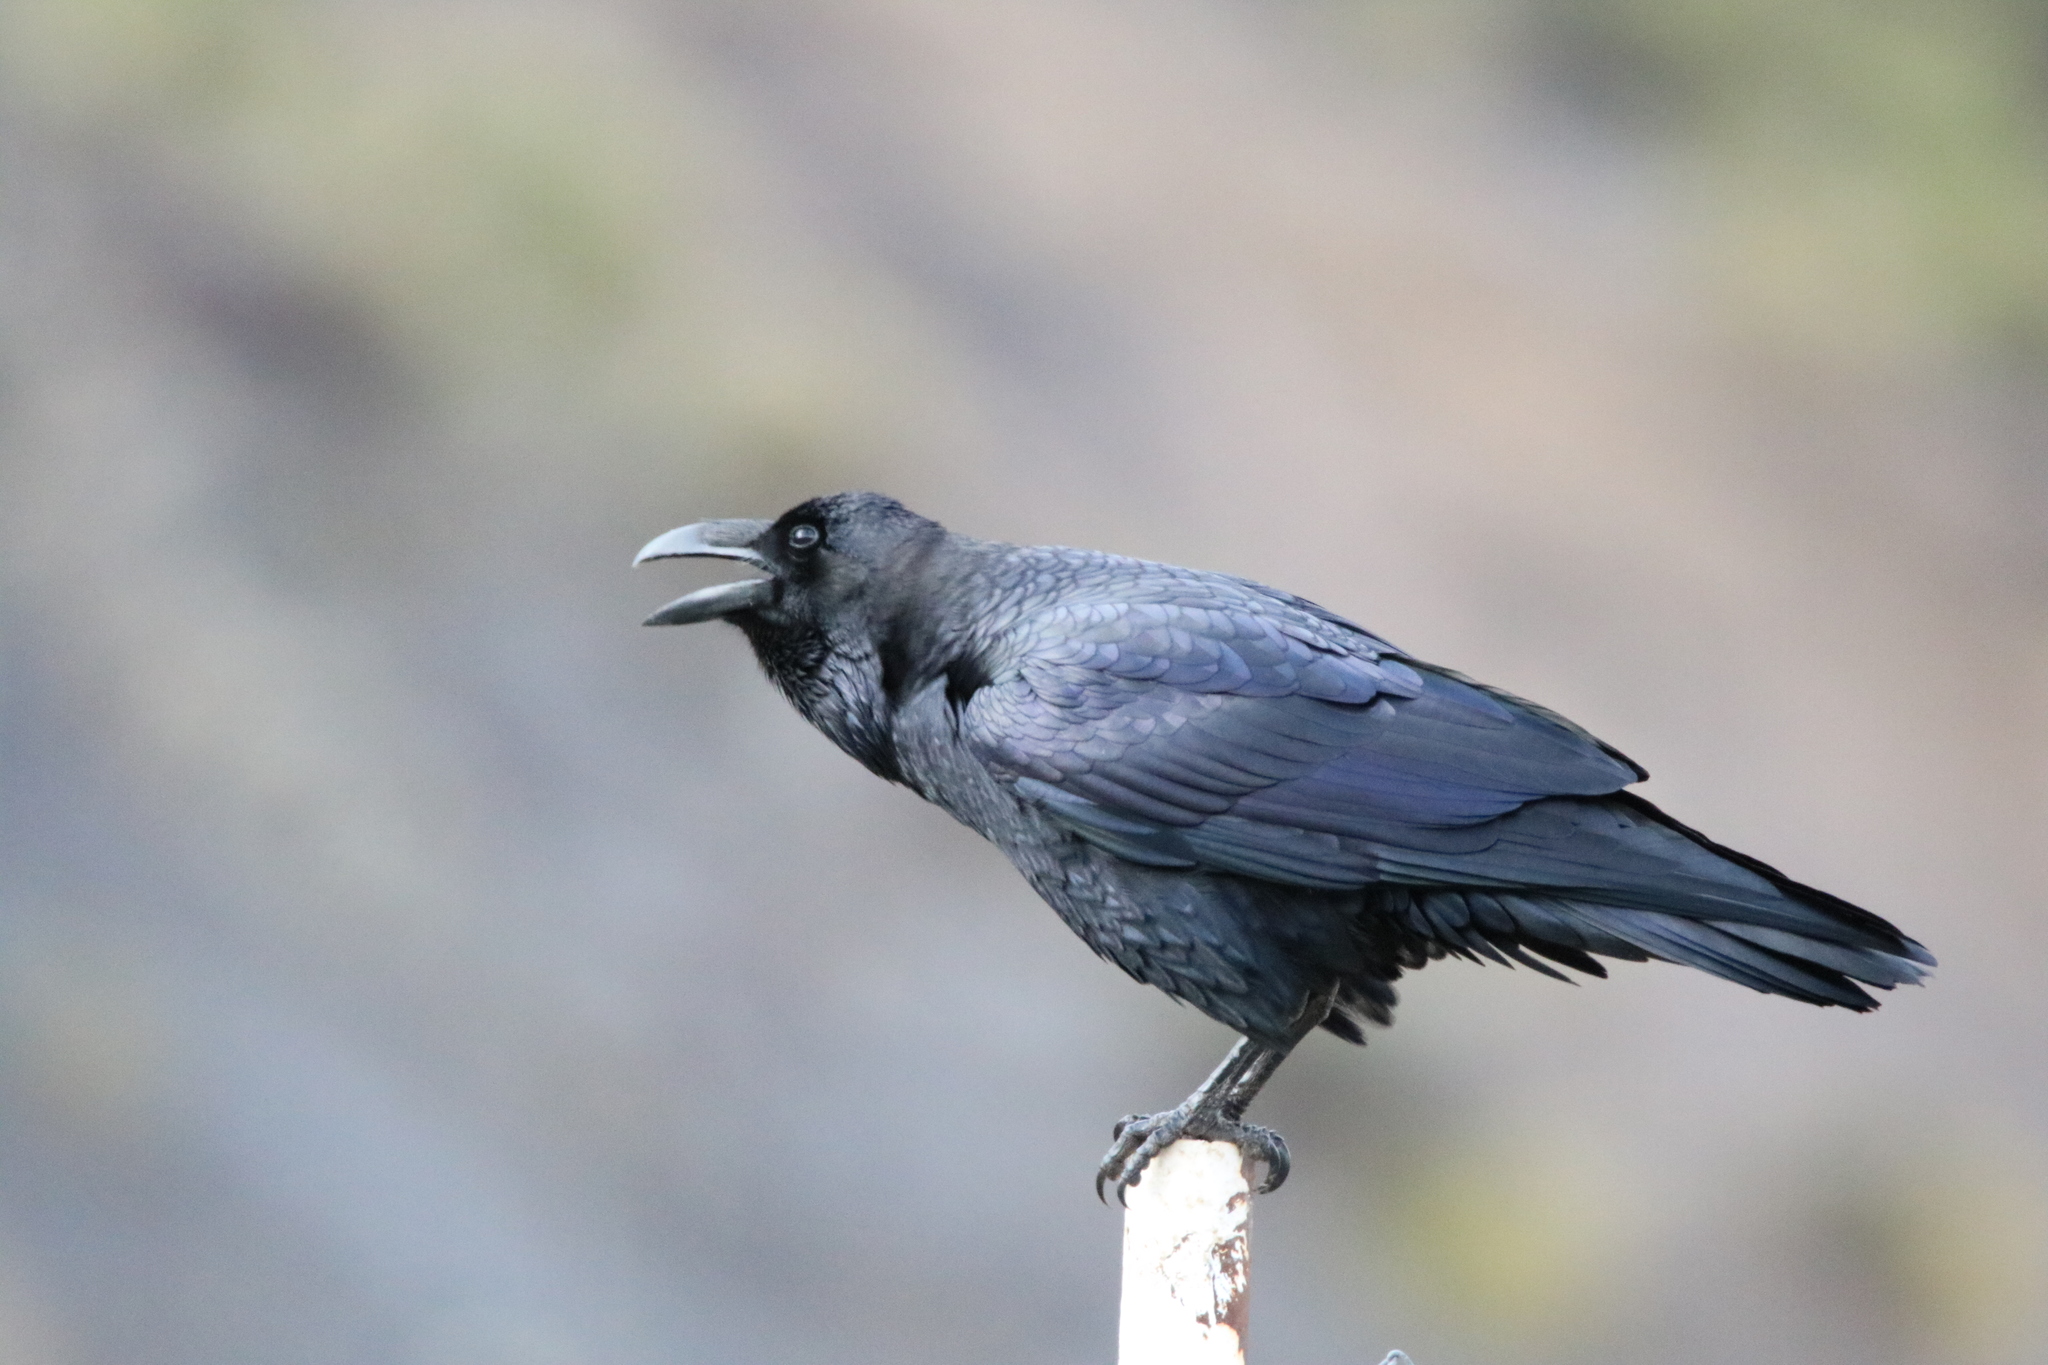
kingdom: Animalia
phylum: Chordata
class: Aves
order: Passeriformes
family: Corvidae
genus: Corvus
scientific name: Corvus corax
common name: Common raven
